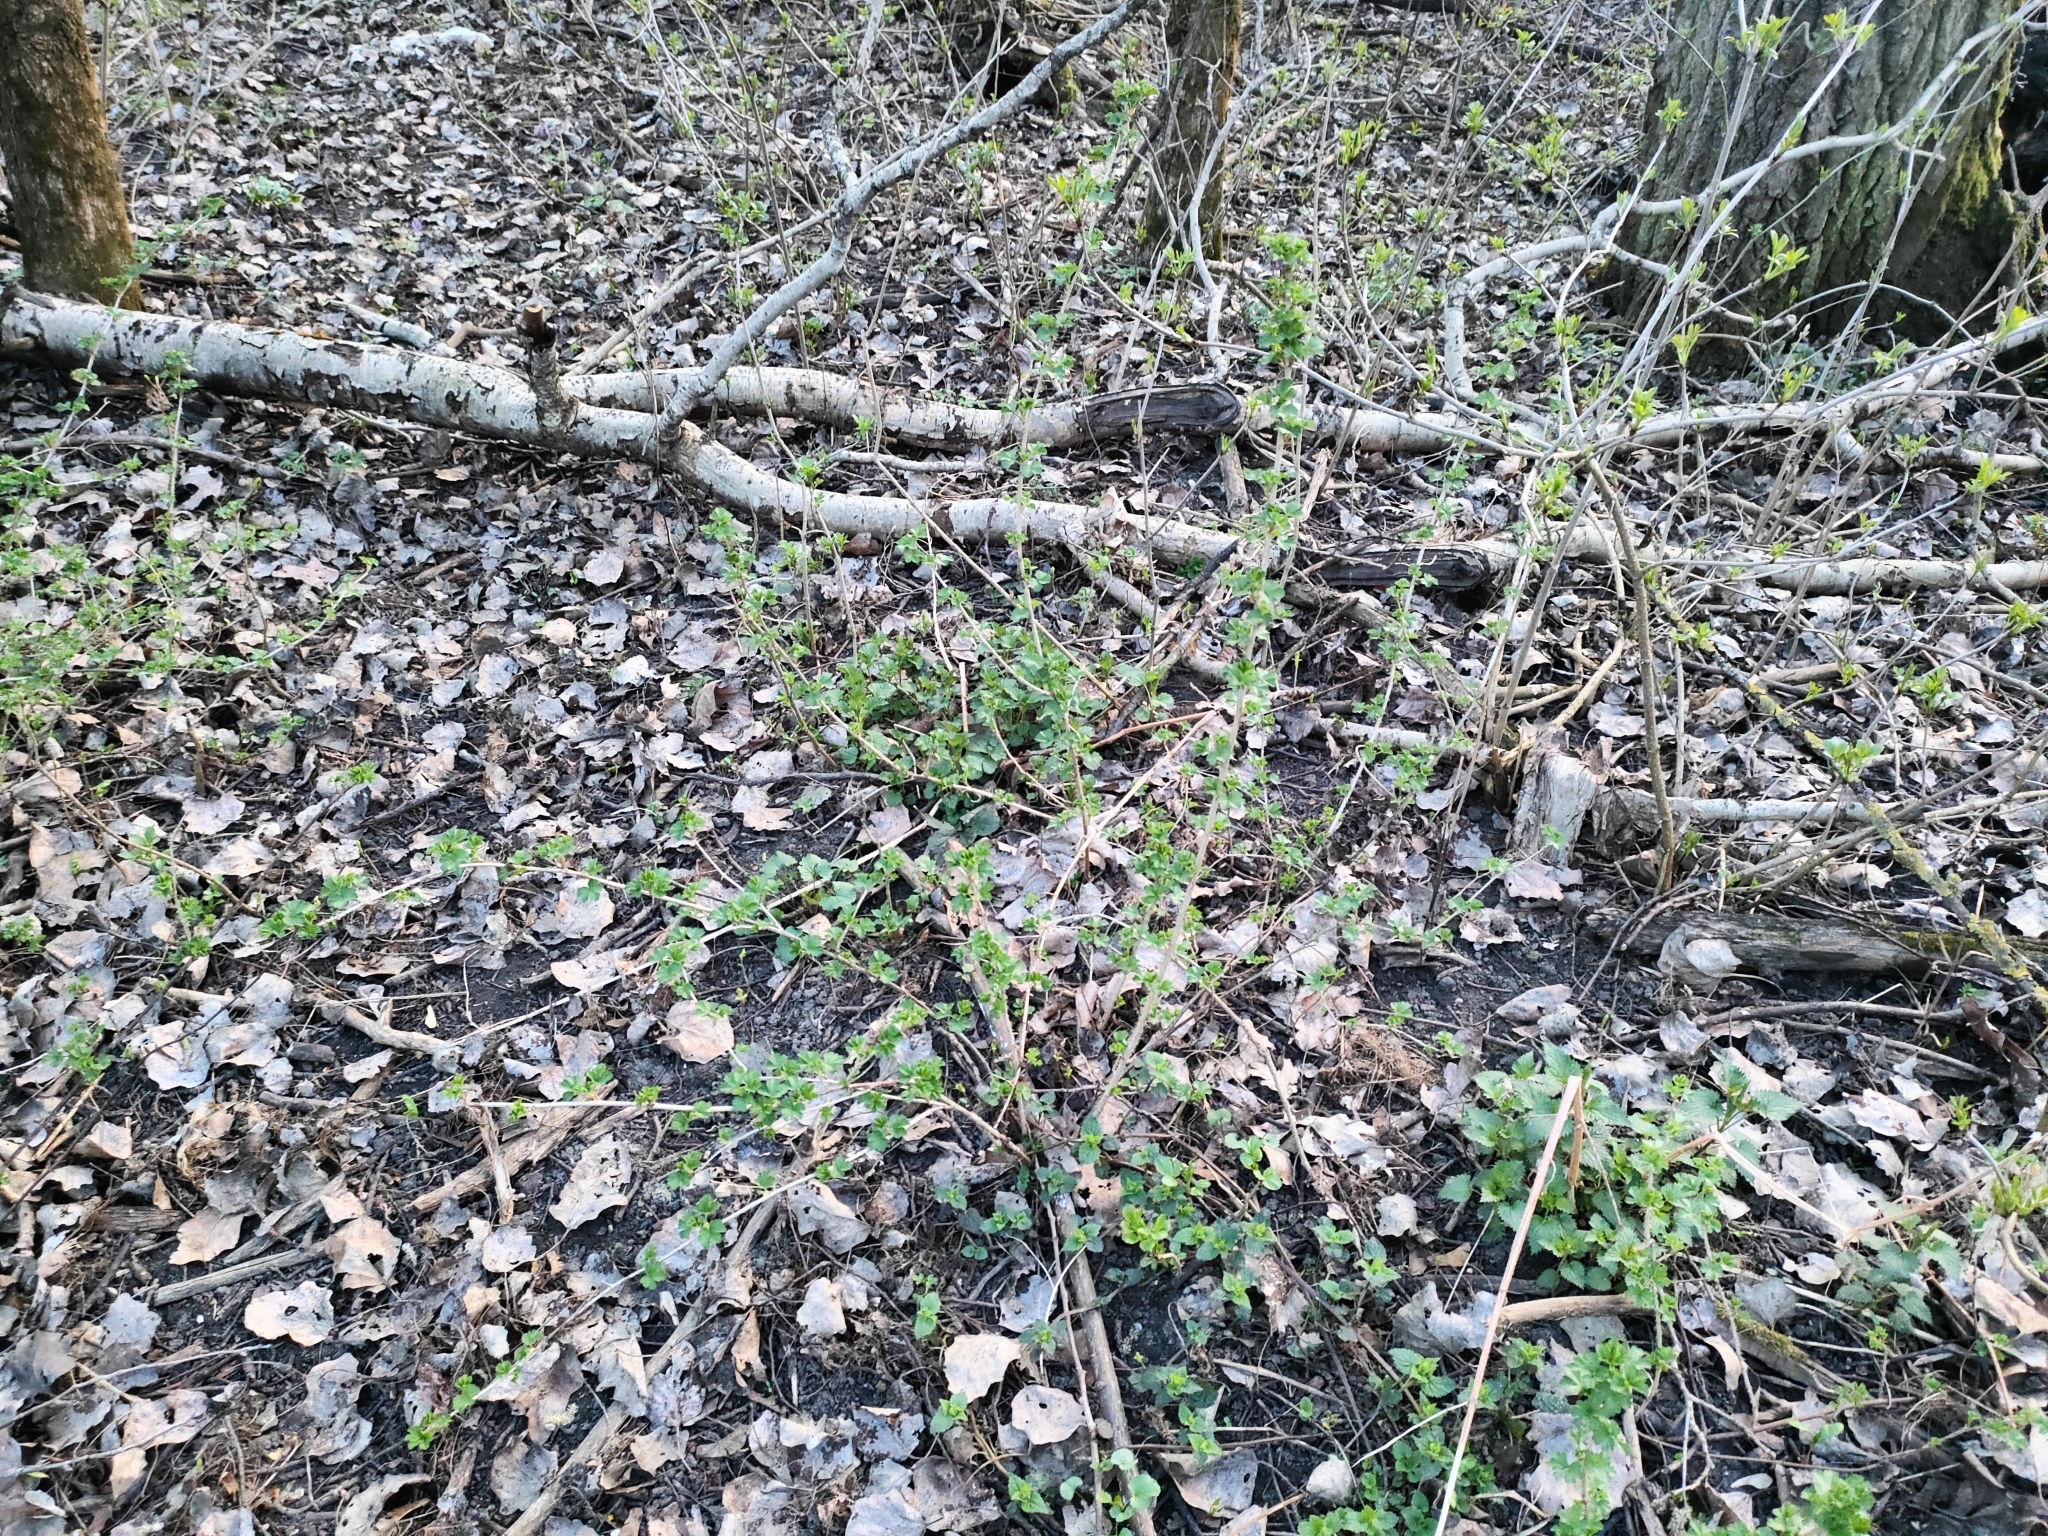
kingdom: Plantae
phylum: Tracheophyta
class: Magnoliopsida
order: Saxifragales
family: Grossulariaceae
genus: Ribes
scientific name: Ribes uva-crispa
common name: Gooseberry
